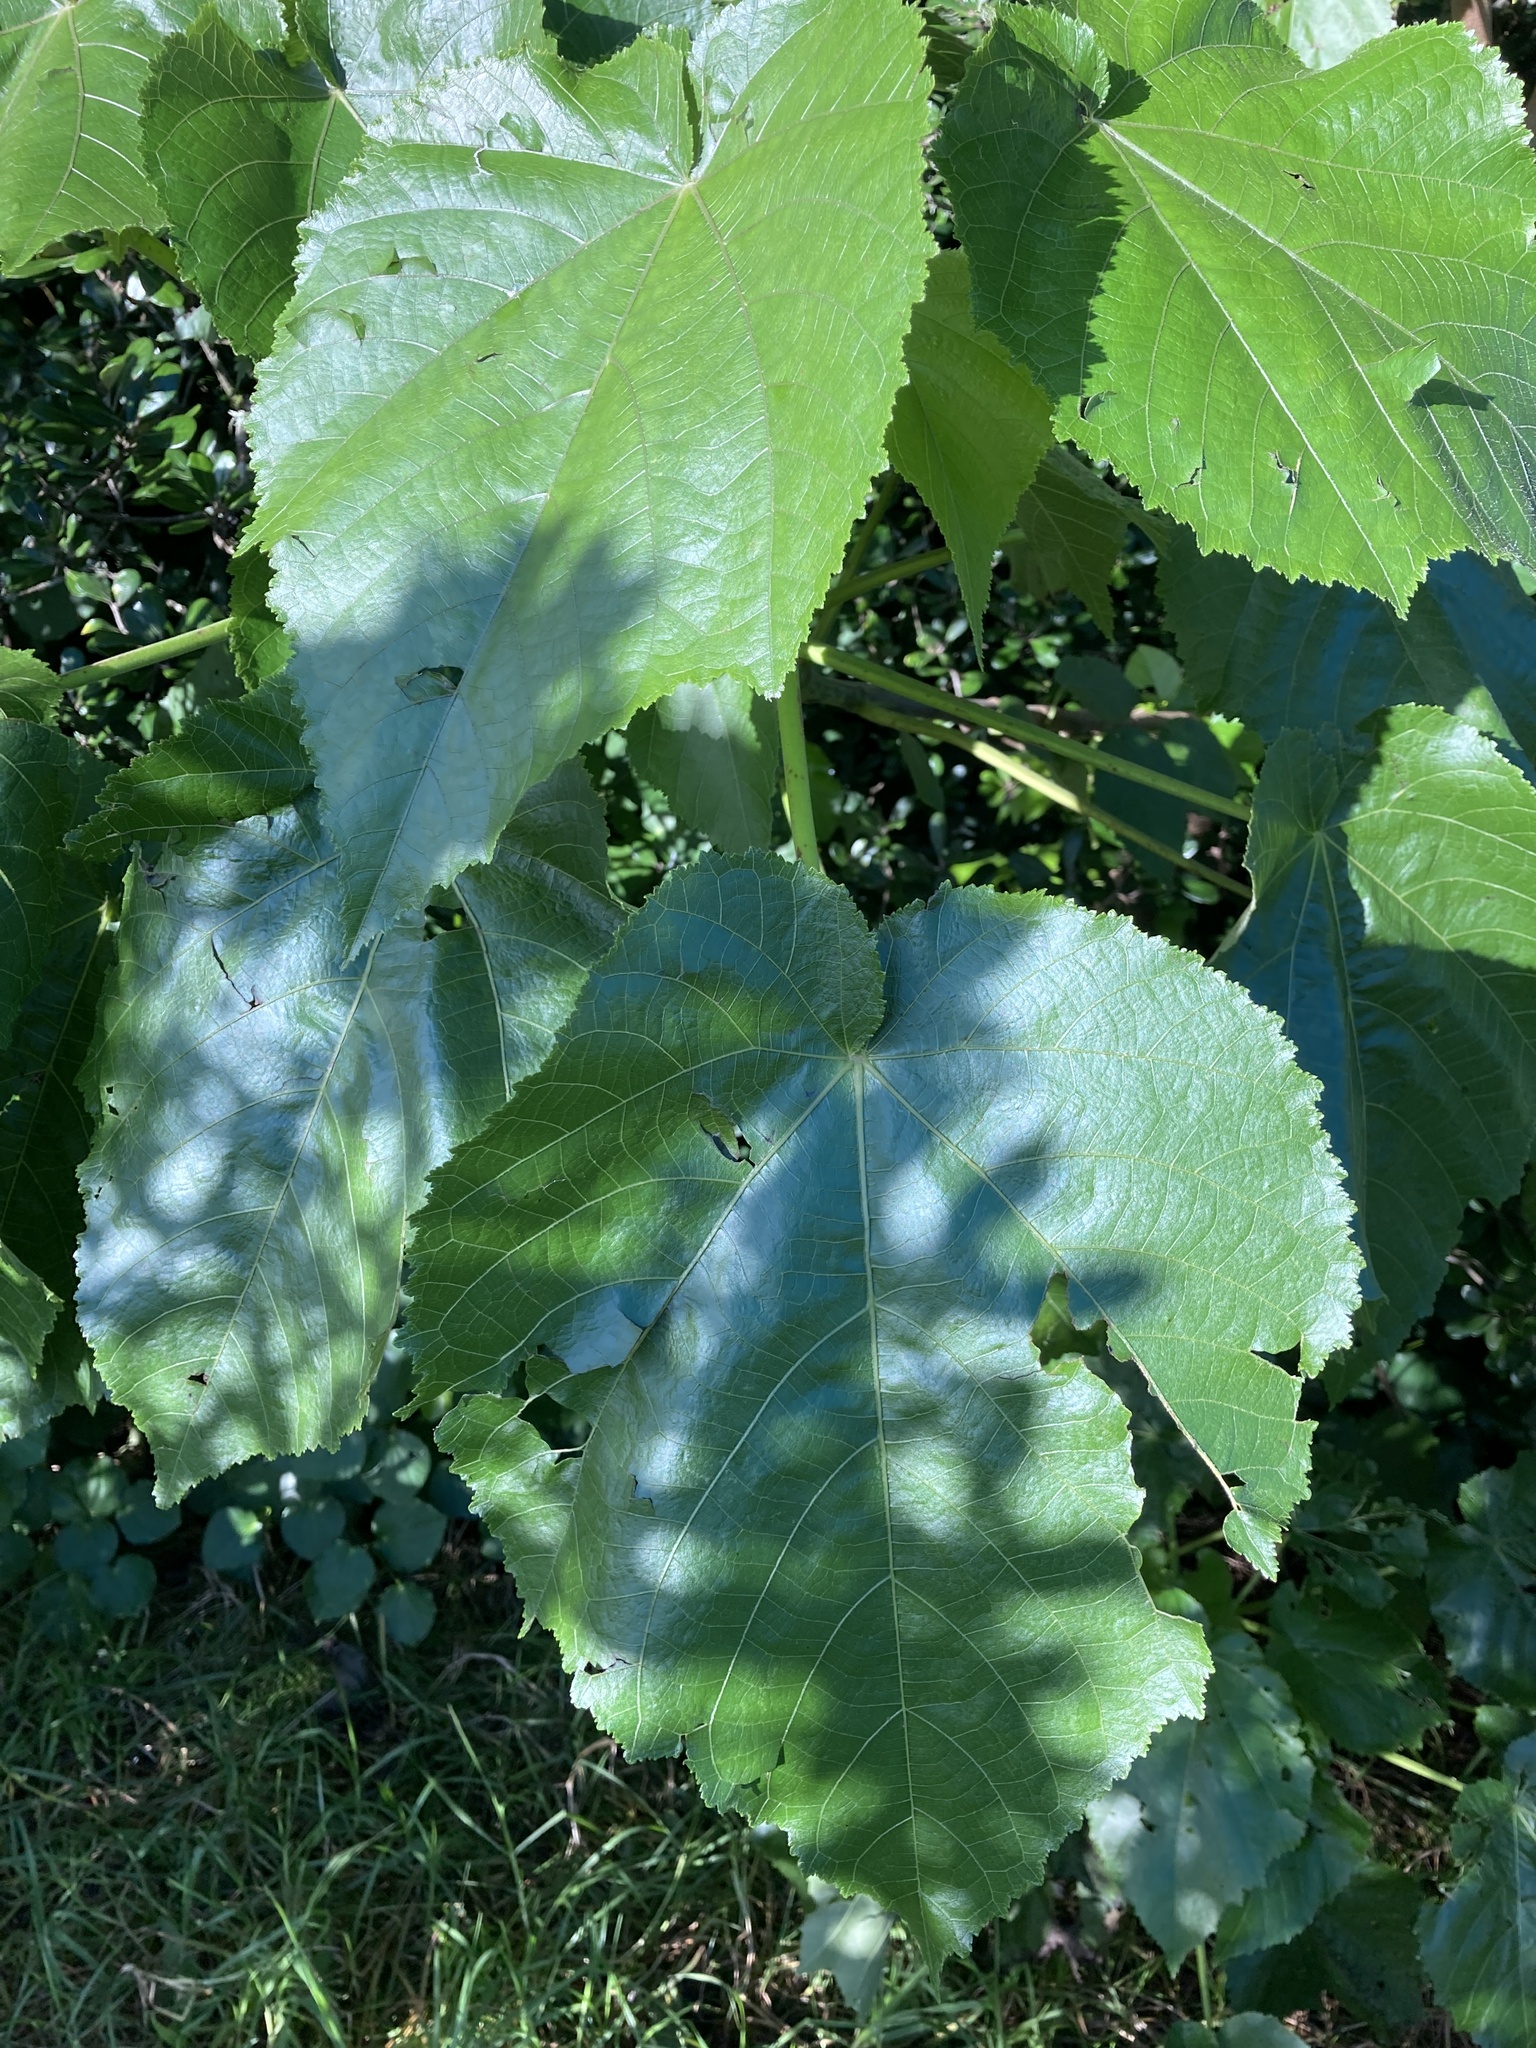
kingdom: Plantae
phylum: Tracheophyta
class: Magnoliopsida
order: Malvales
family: Malvaceae
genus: Entelea
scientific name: Entelea arborescens
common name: New zealand-mulberry
